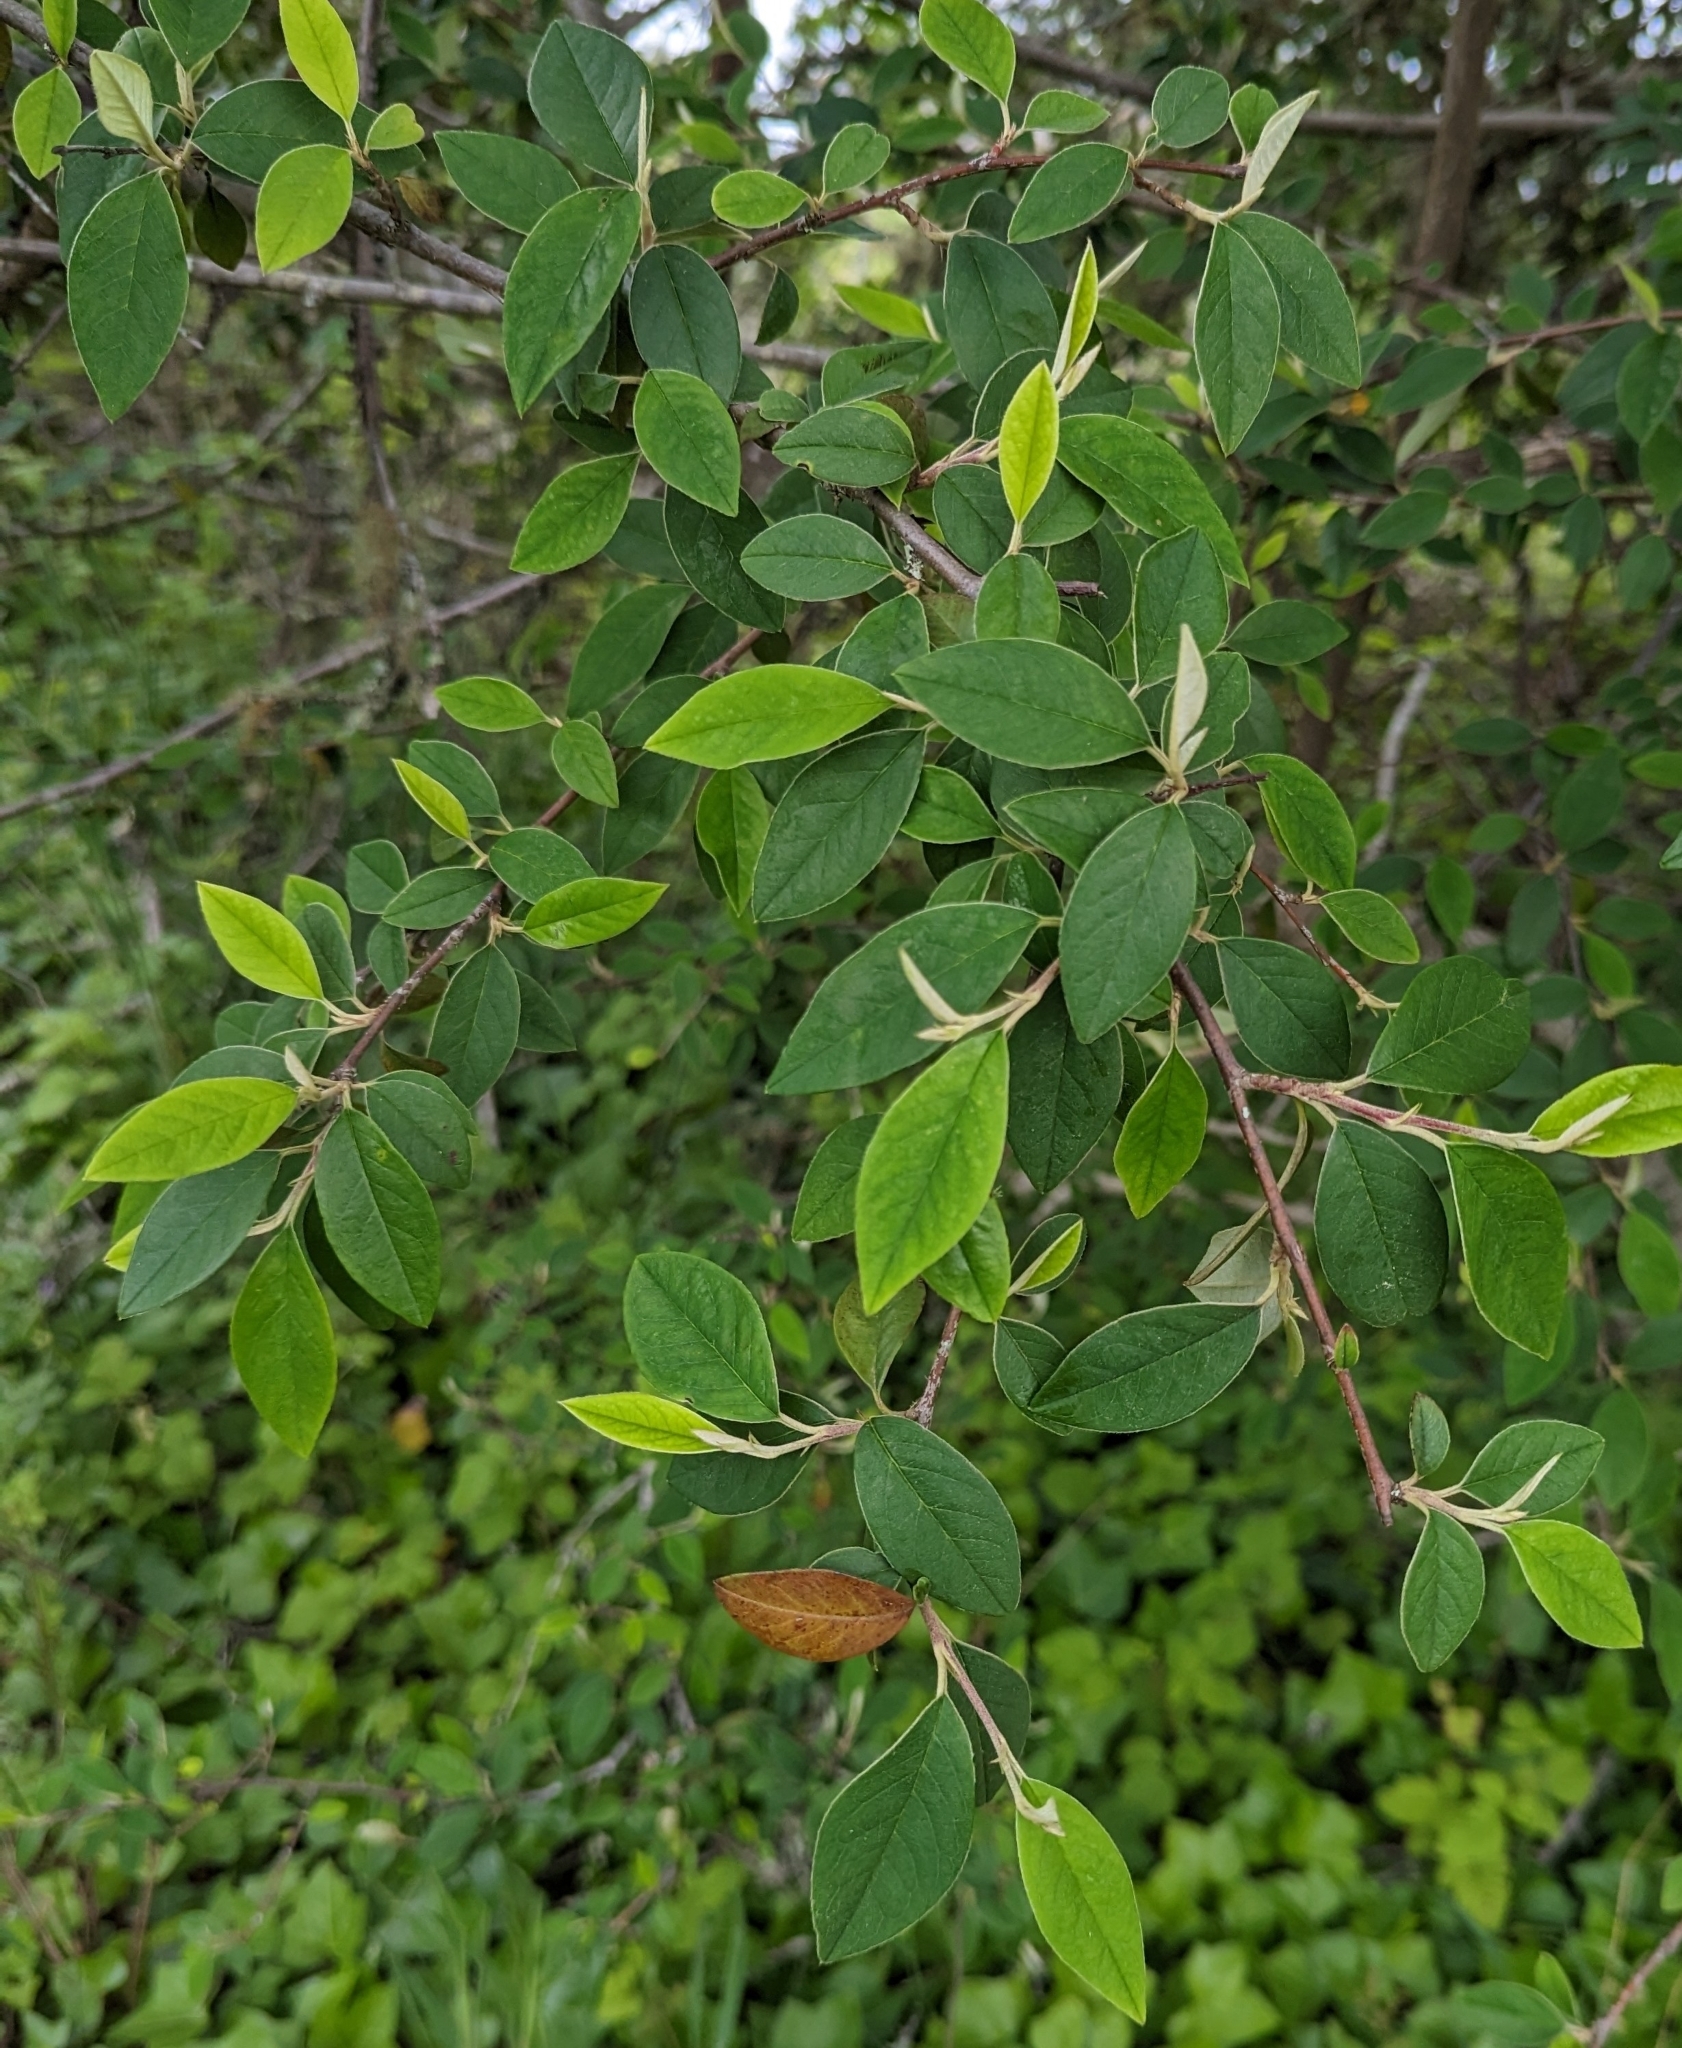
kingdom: Plantae
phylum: Tracheophyta
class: Magnoliopsida
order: Rosales
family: Rosaceae
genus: Cotoneaster
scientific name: Cotoneaster franchetii
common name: Franchet's cotoneaster
